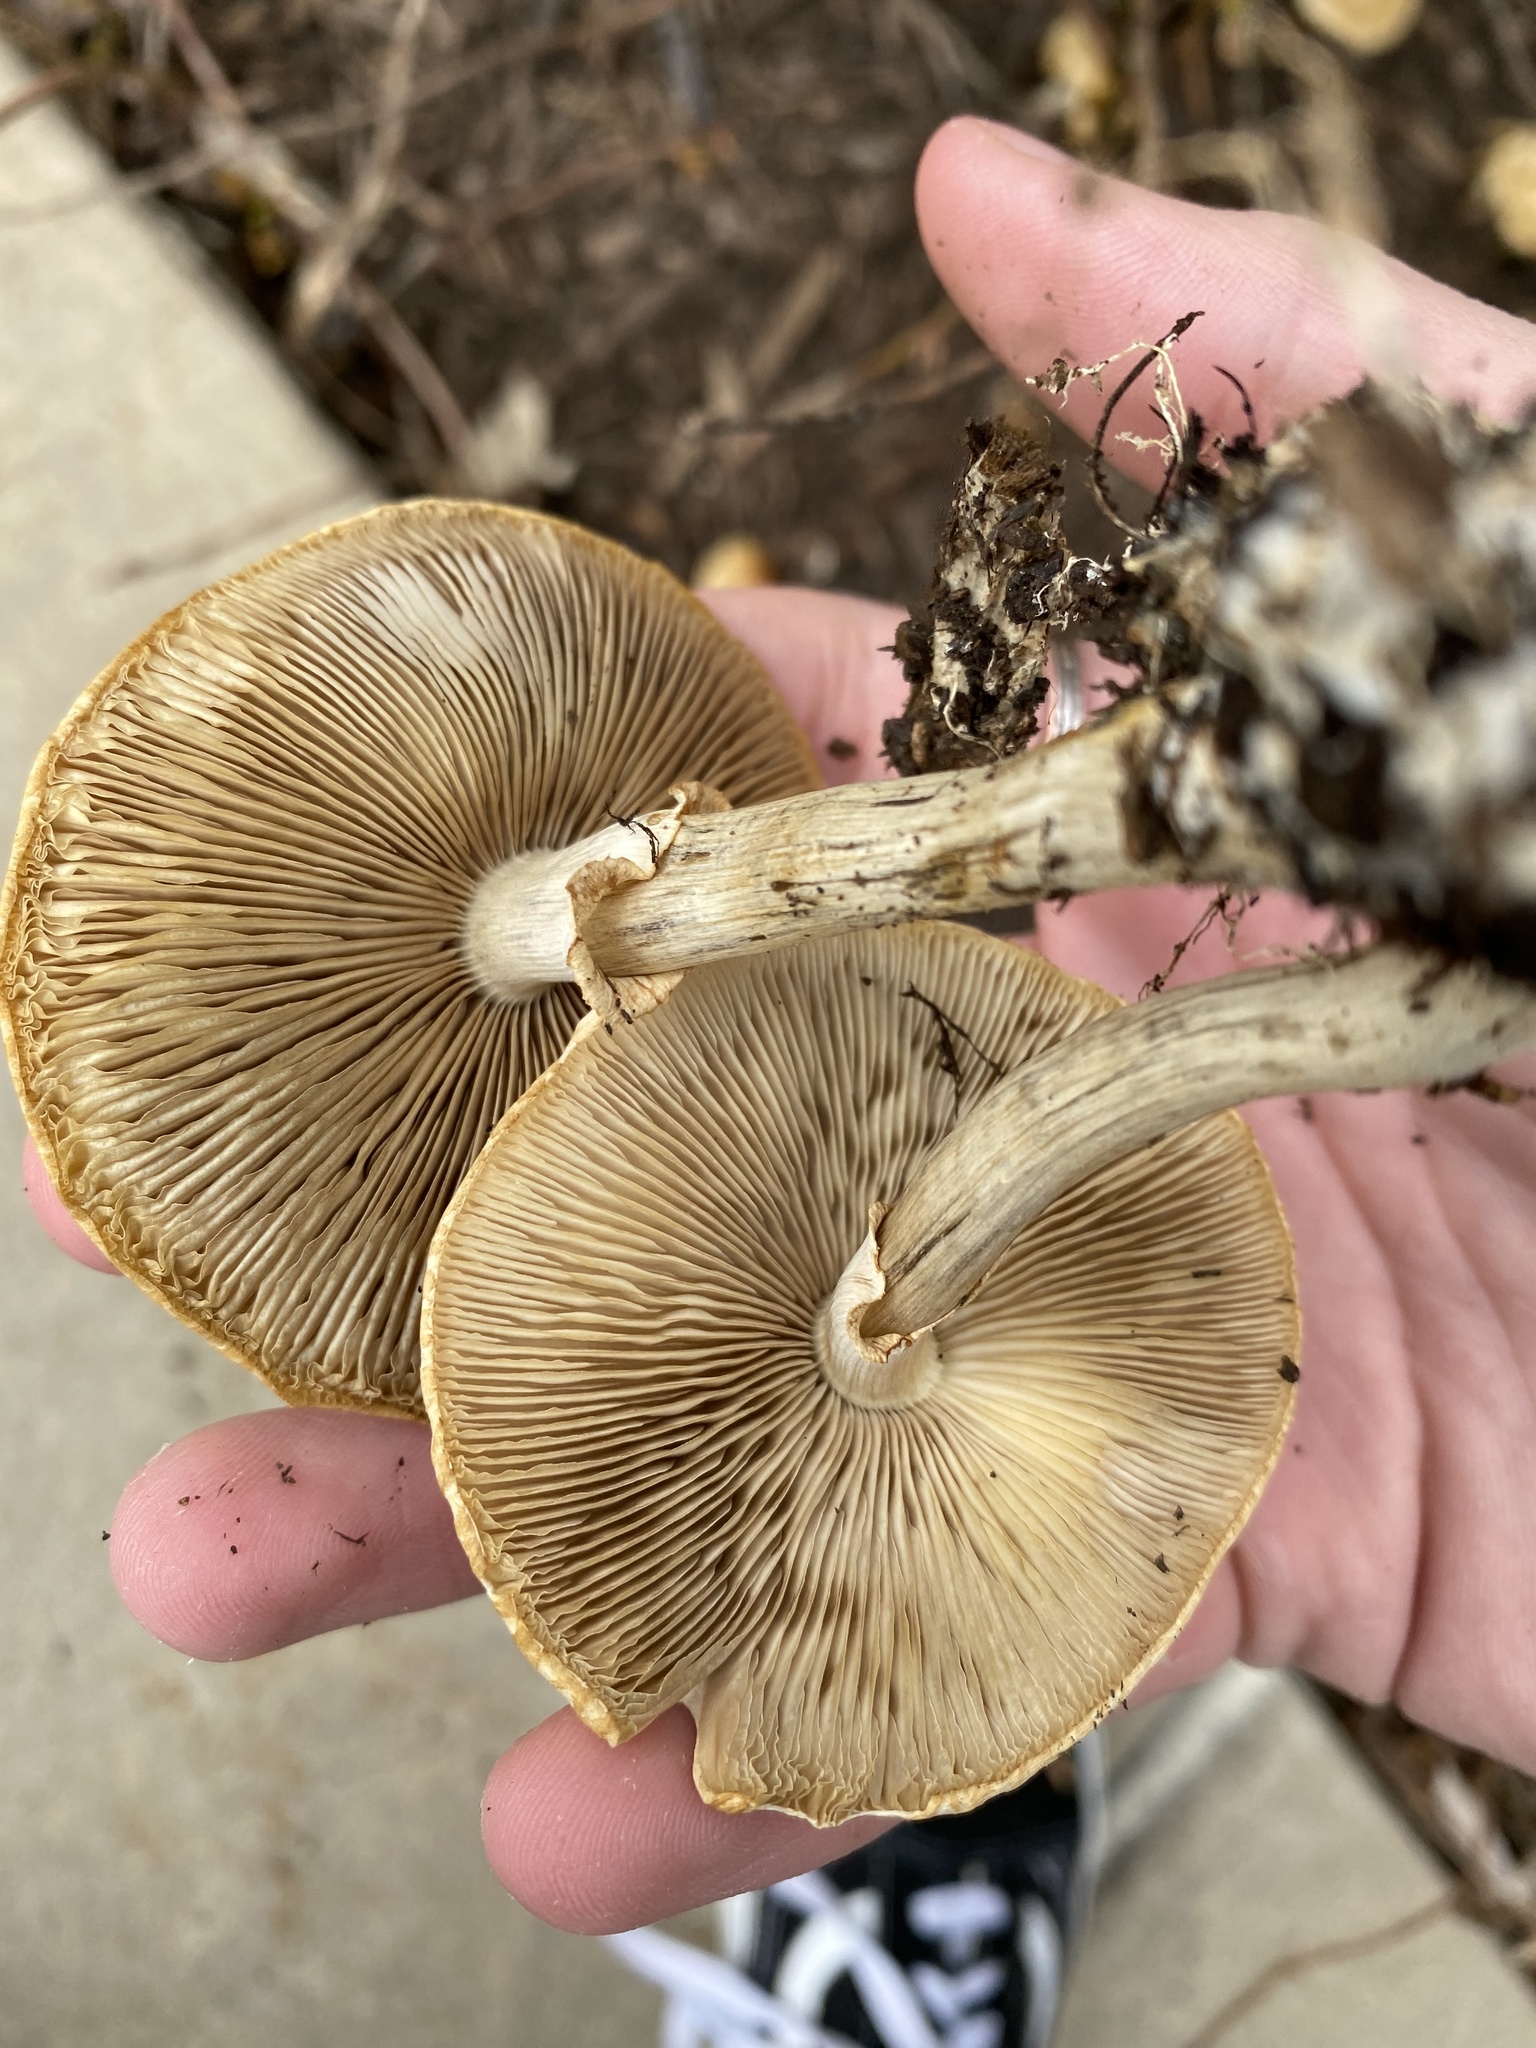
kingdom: Fungi
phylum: Basidiomycota
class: Agaricomycetes
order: Agaricales
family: Strophariaceae
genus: Agrocybe
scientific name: Agrocybe praecox
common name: Spring fieldcap
